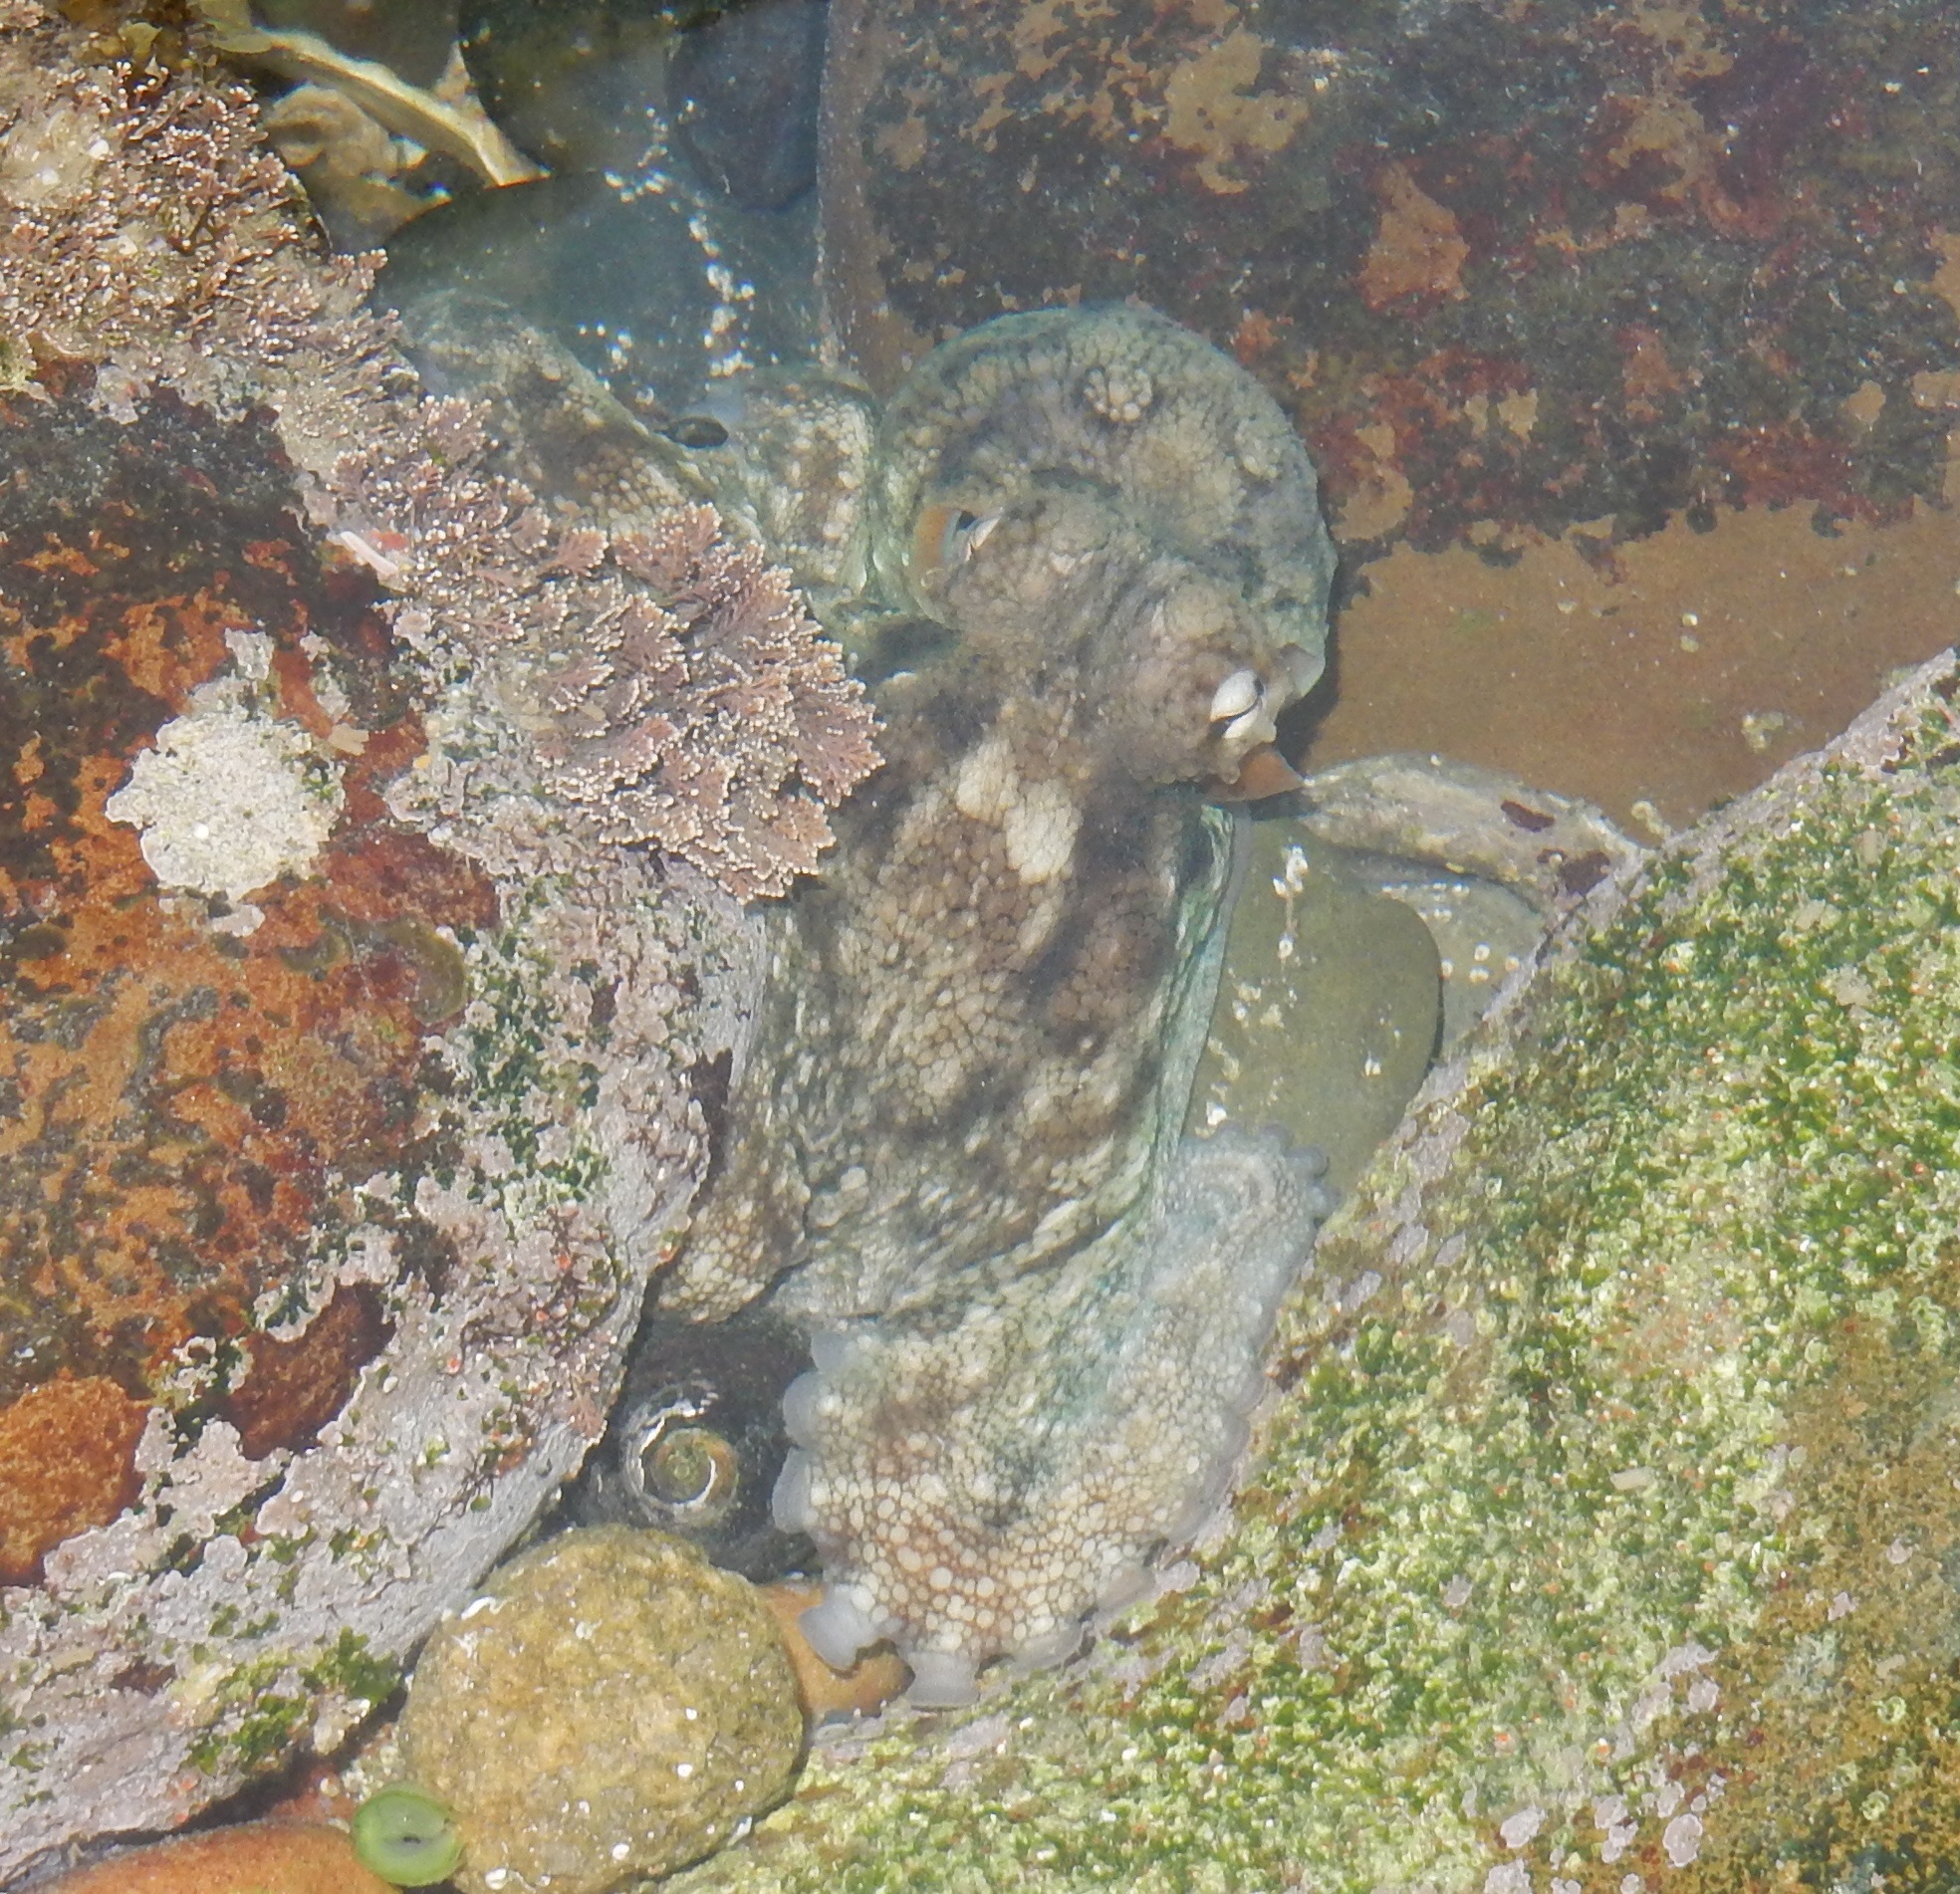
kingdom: Animalia
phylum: Mollusca
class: Cephalopoda
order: Octopoda
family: Octopodidae
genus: Octopus
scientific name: Octopus vulgaris
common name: Common octopus
